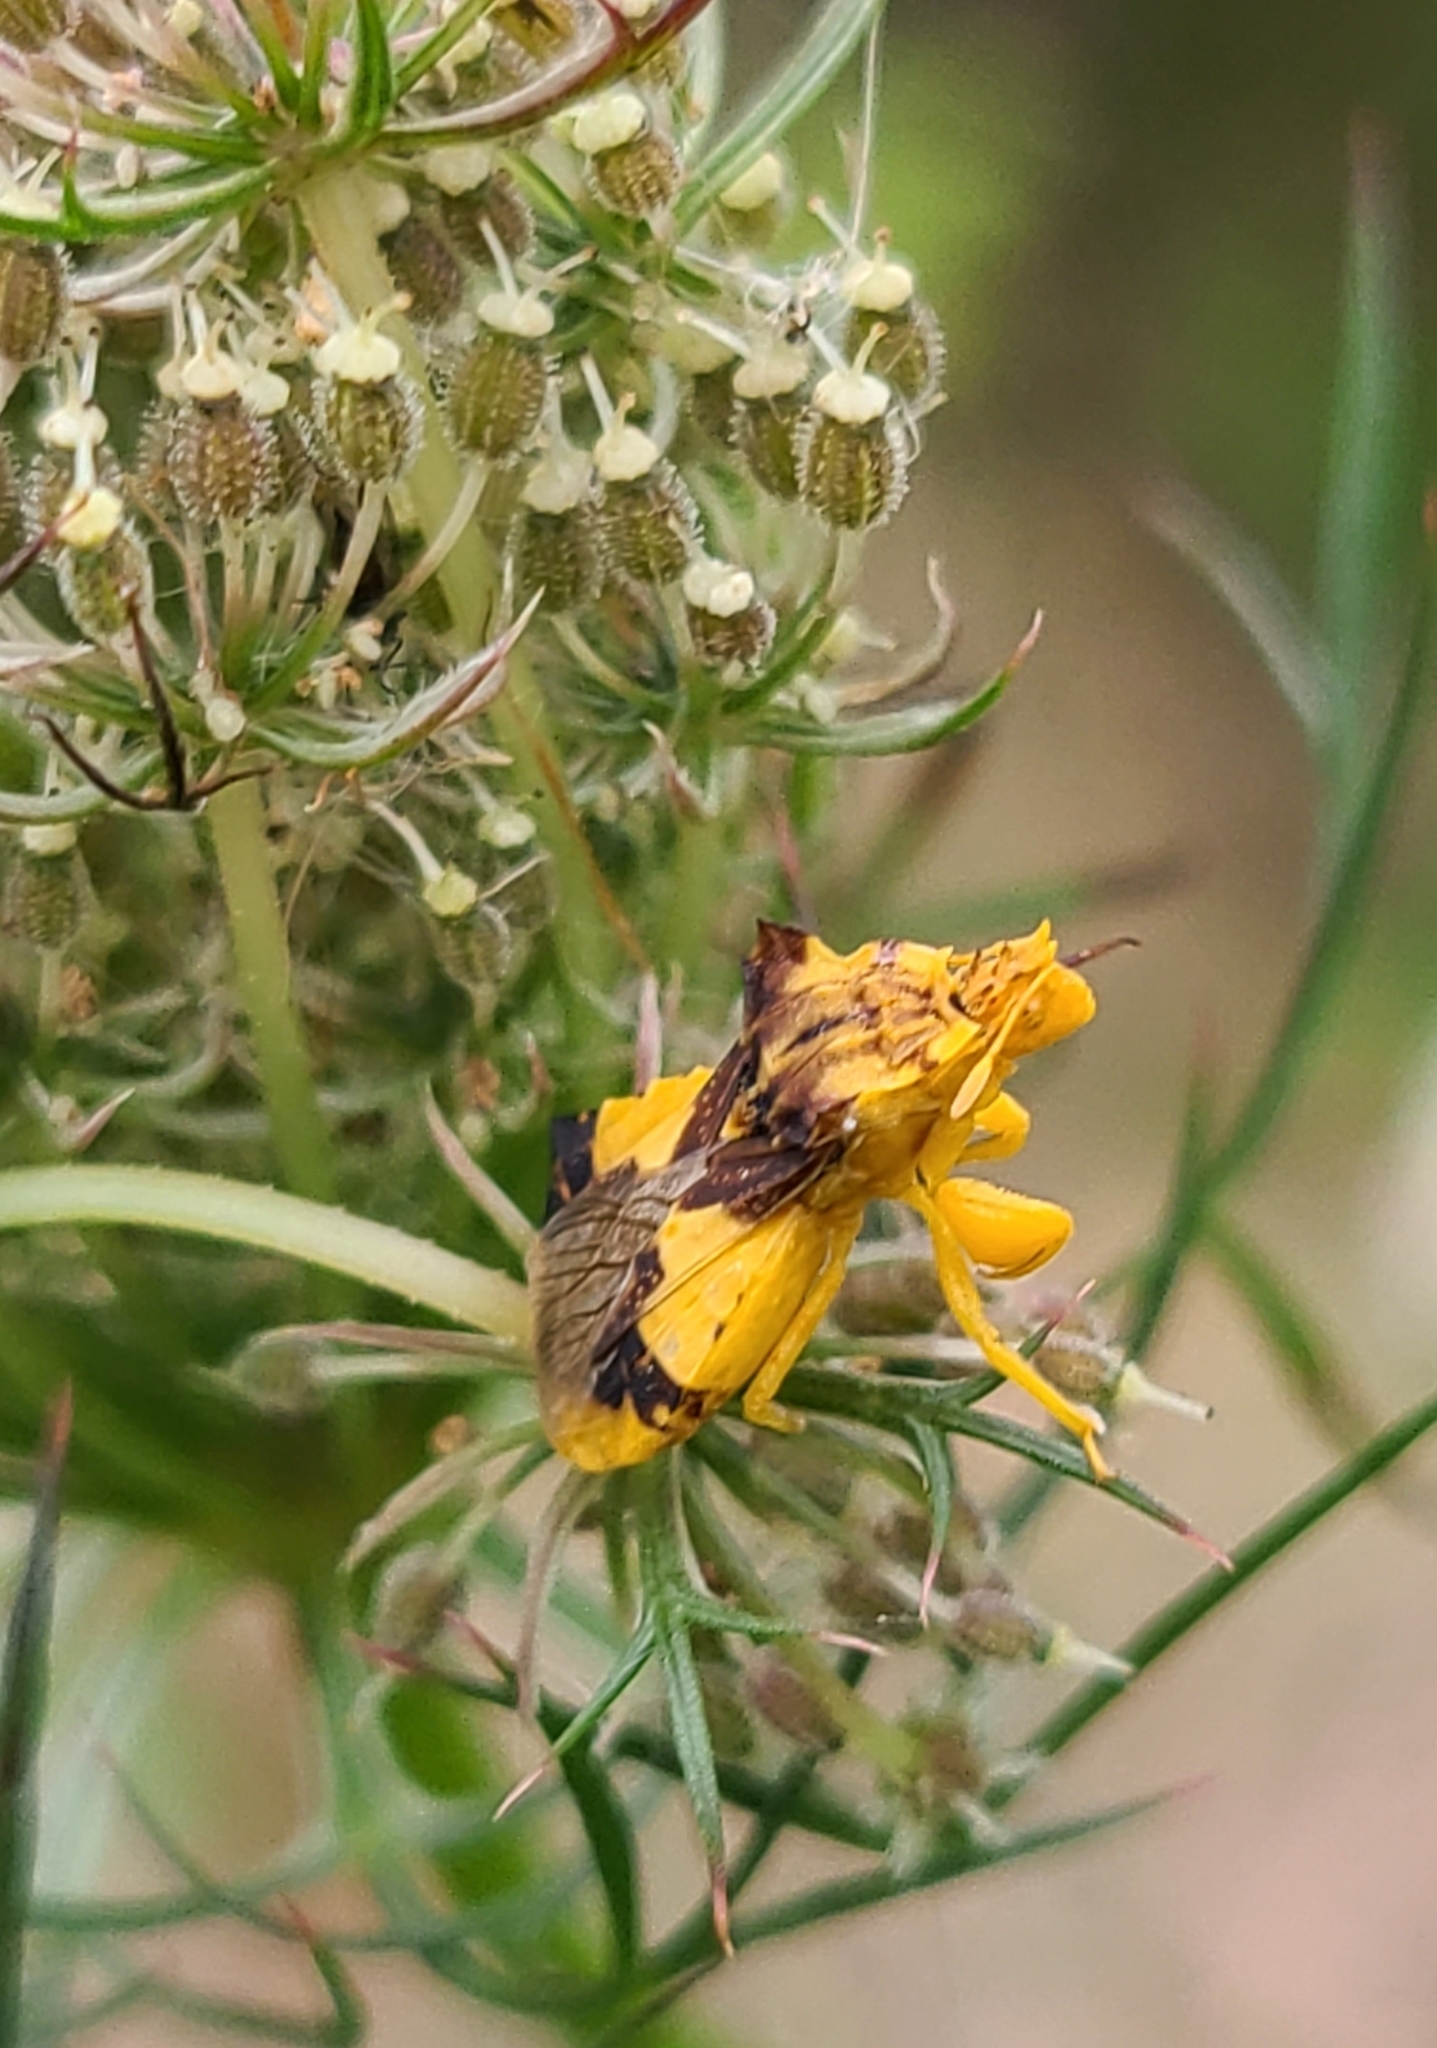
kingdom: Animalia
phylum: Arthropoda
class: Insecta
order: Hemiptera
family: Reduviidae
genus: Phymata
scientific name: Phymata americana
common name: Jagged ambush bug
